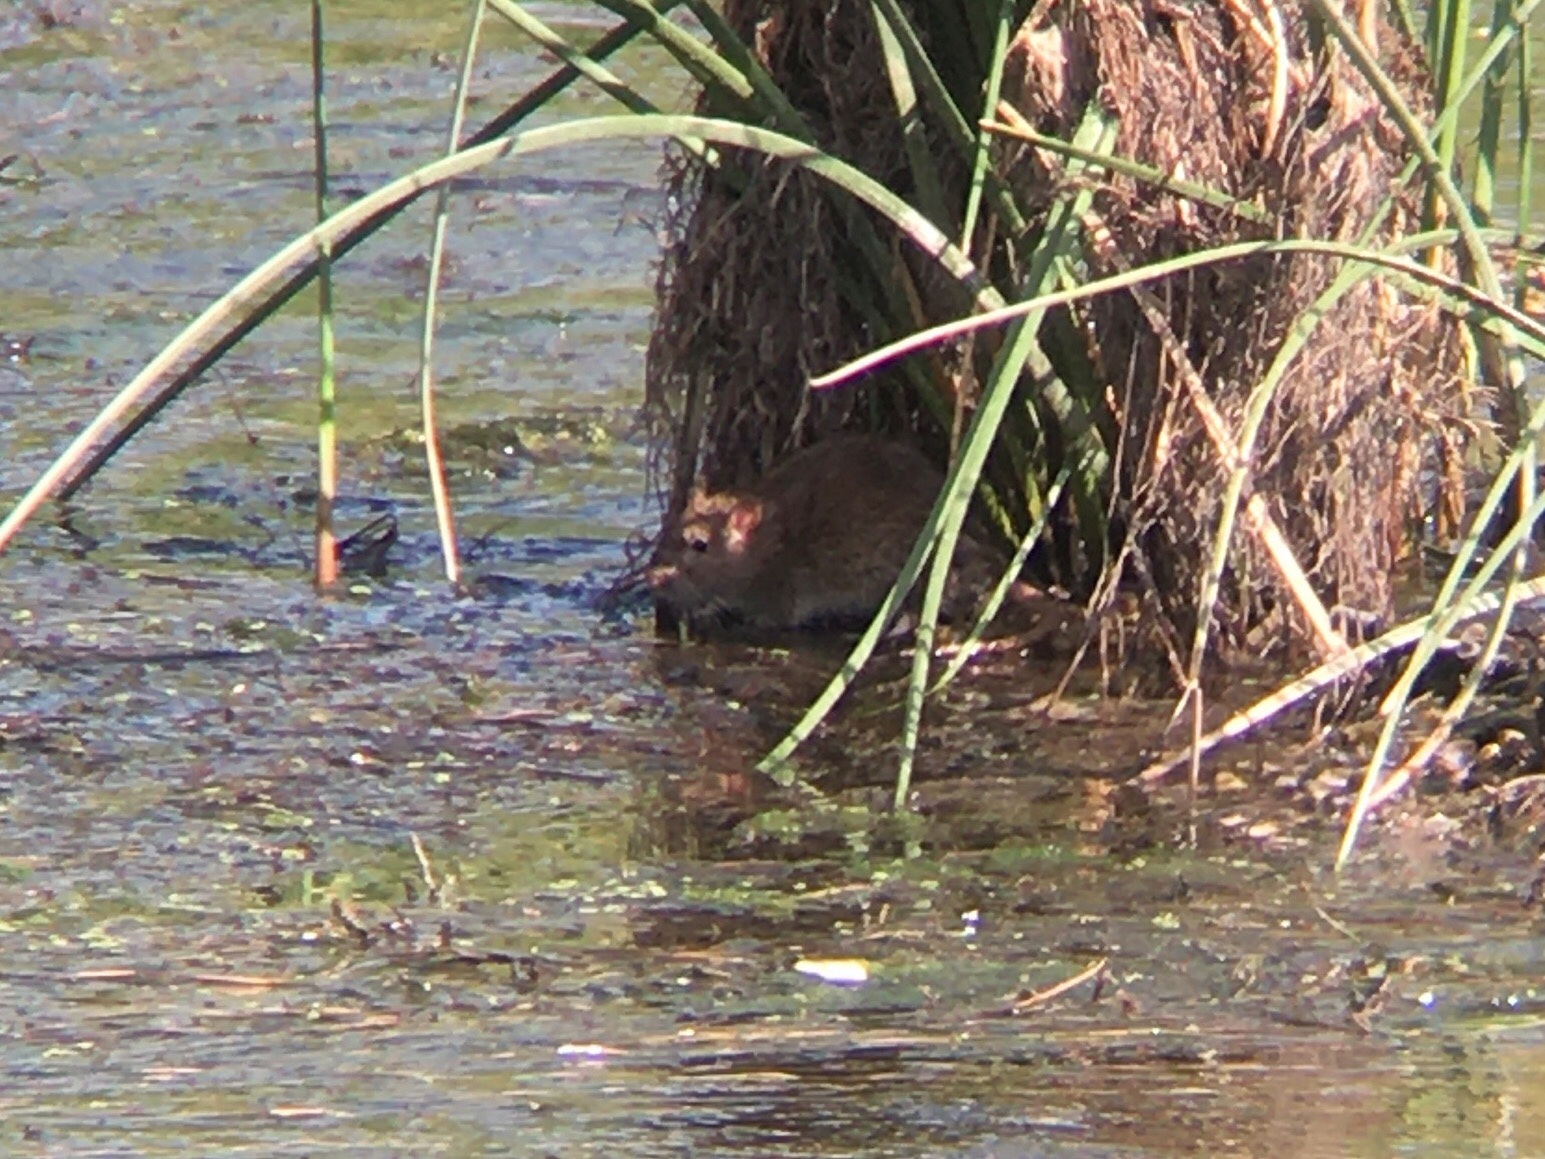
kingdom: Animalia
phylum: Chordata
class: Mammalia
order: Rodentia
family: Muridae
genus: Rattus
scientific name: Rattus rattus
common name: Black rat
